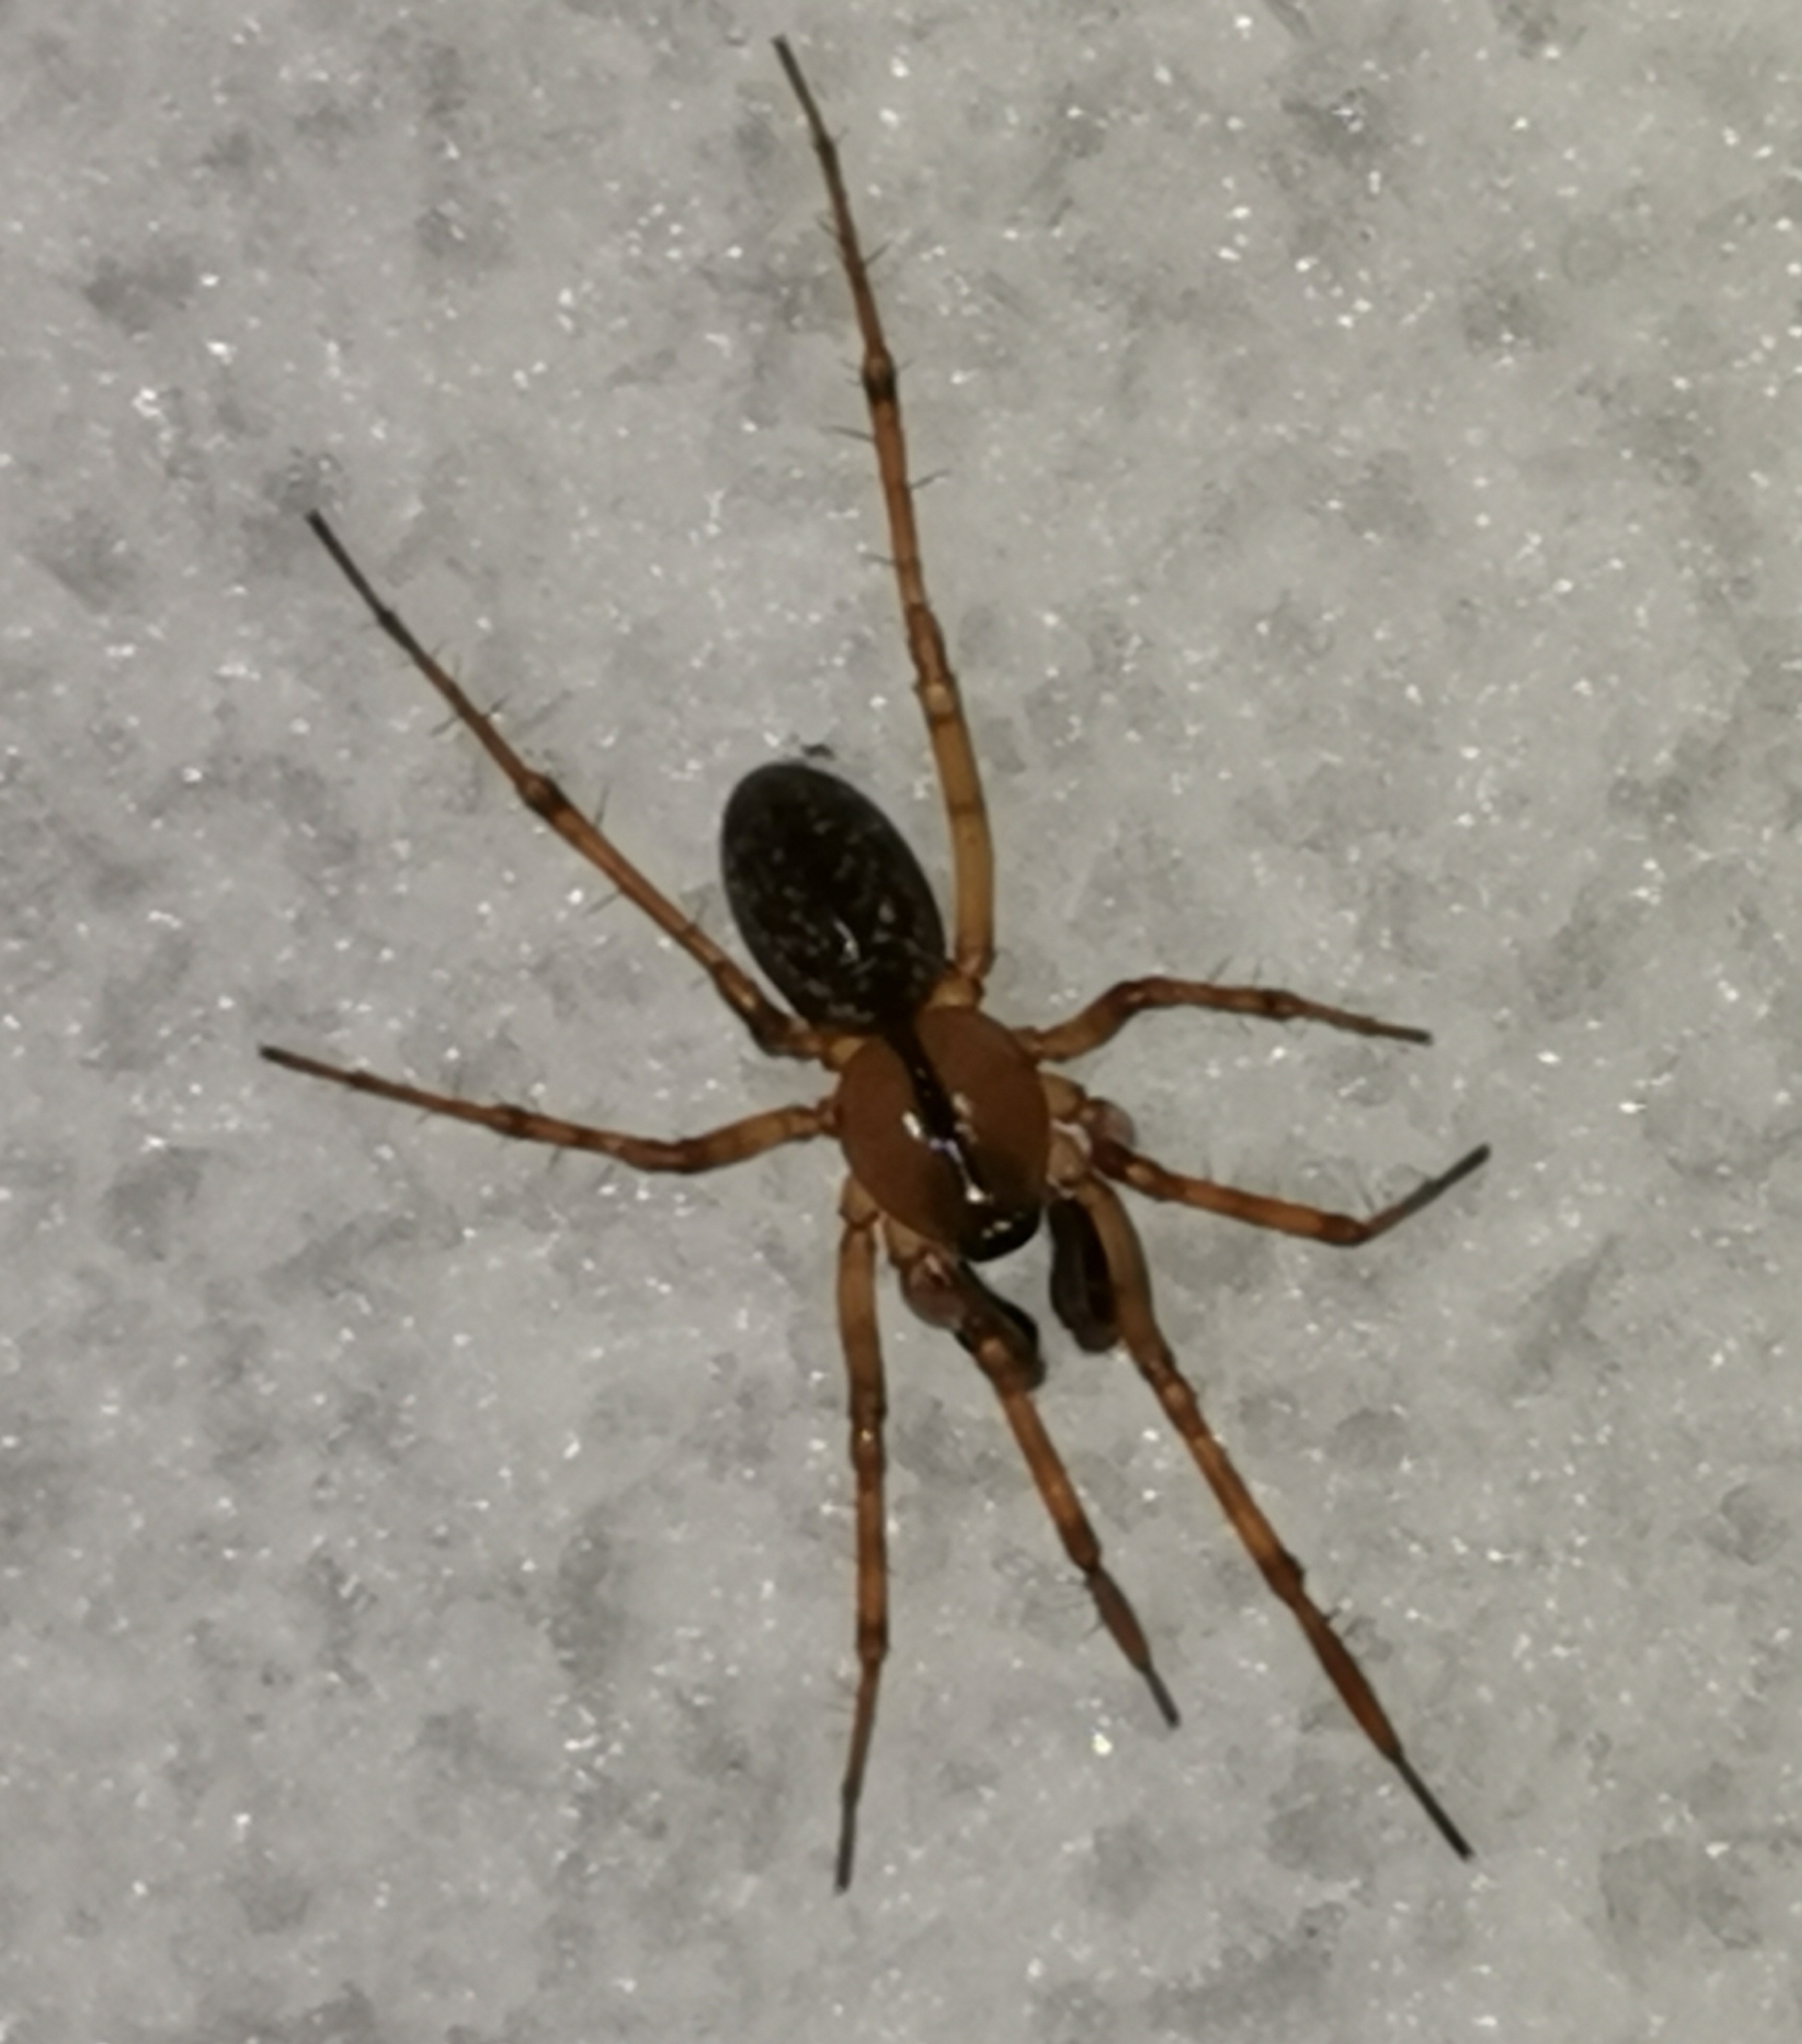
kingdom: Animalia
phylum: Arthropoda
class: Arachnida
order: Araneae
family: Linyphiidae
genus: Stemonyphantes
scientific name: Stemonyphantes lineatus
